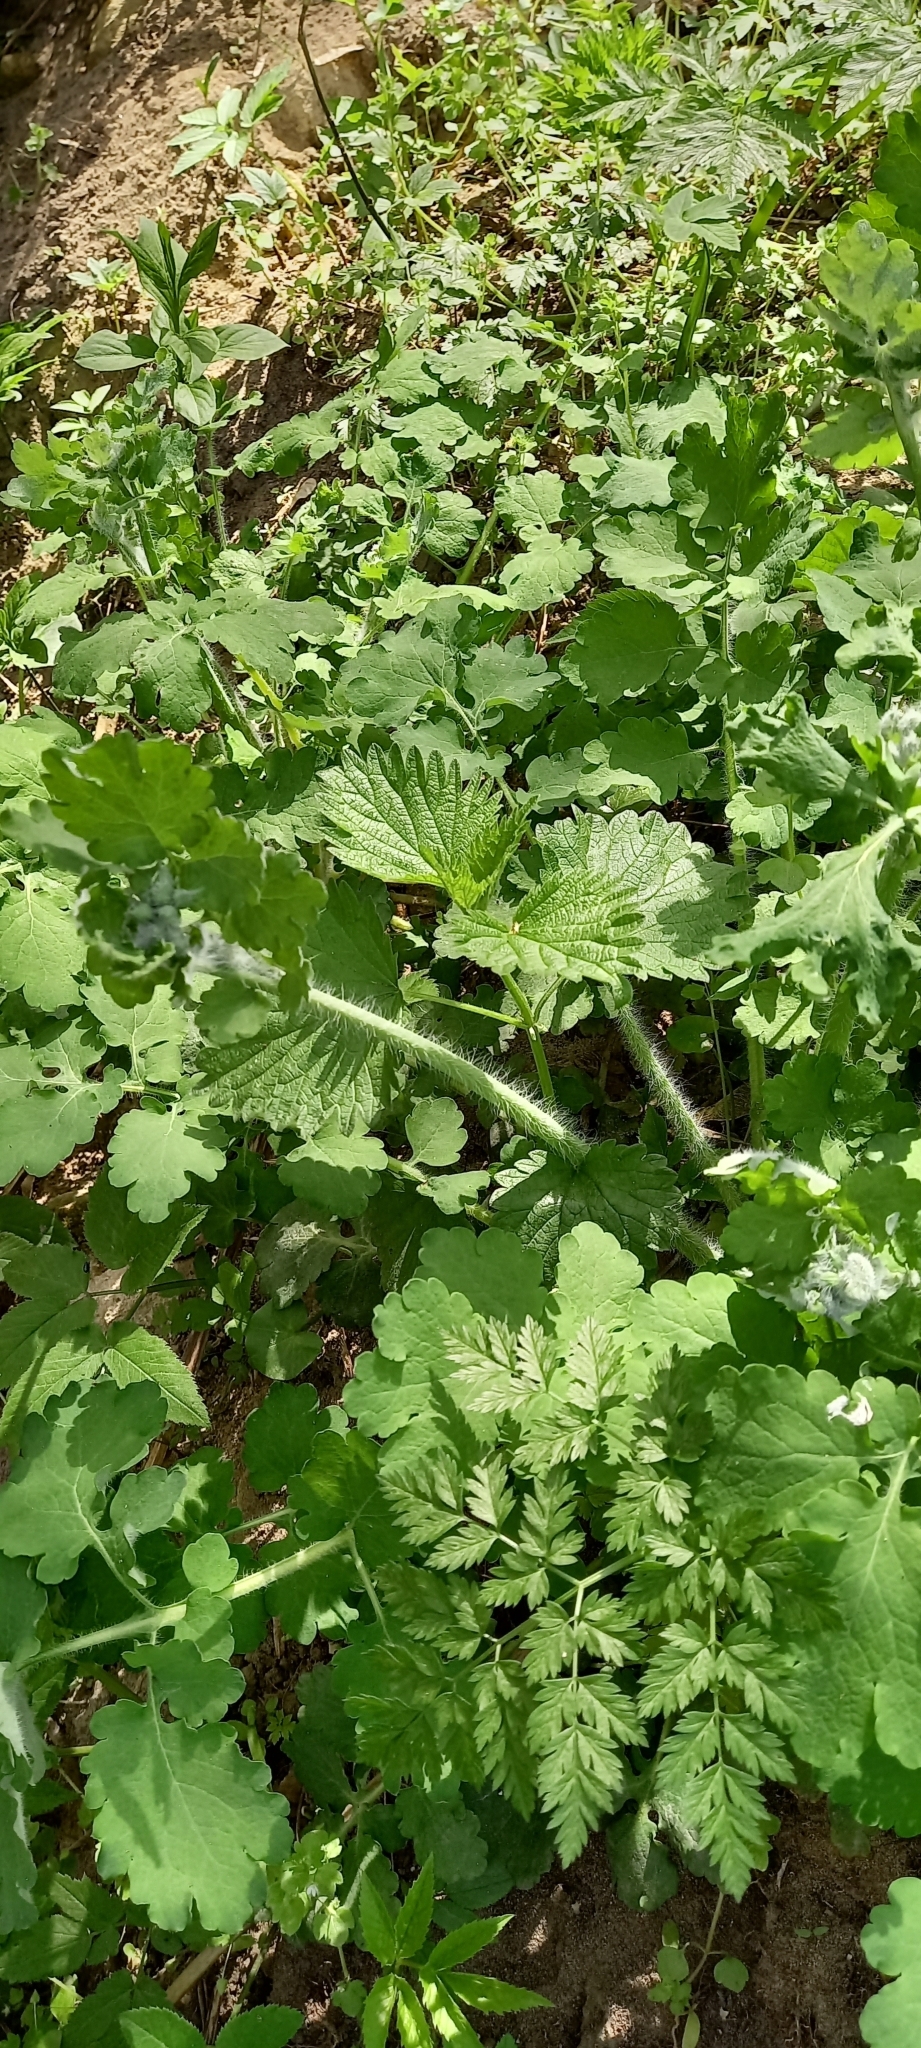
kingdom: Plantae
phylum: Tracheophyta
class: Magnoliopsida
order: Ranunculales
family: Papaveraceae
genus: Chelidonium
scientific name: Chelidonium majus
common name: Greater celandine
